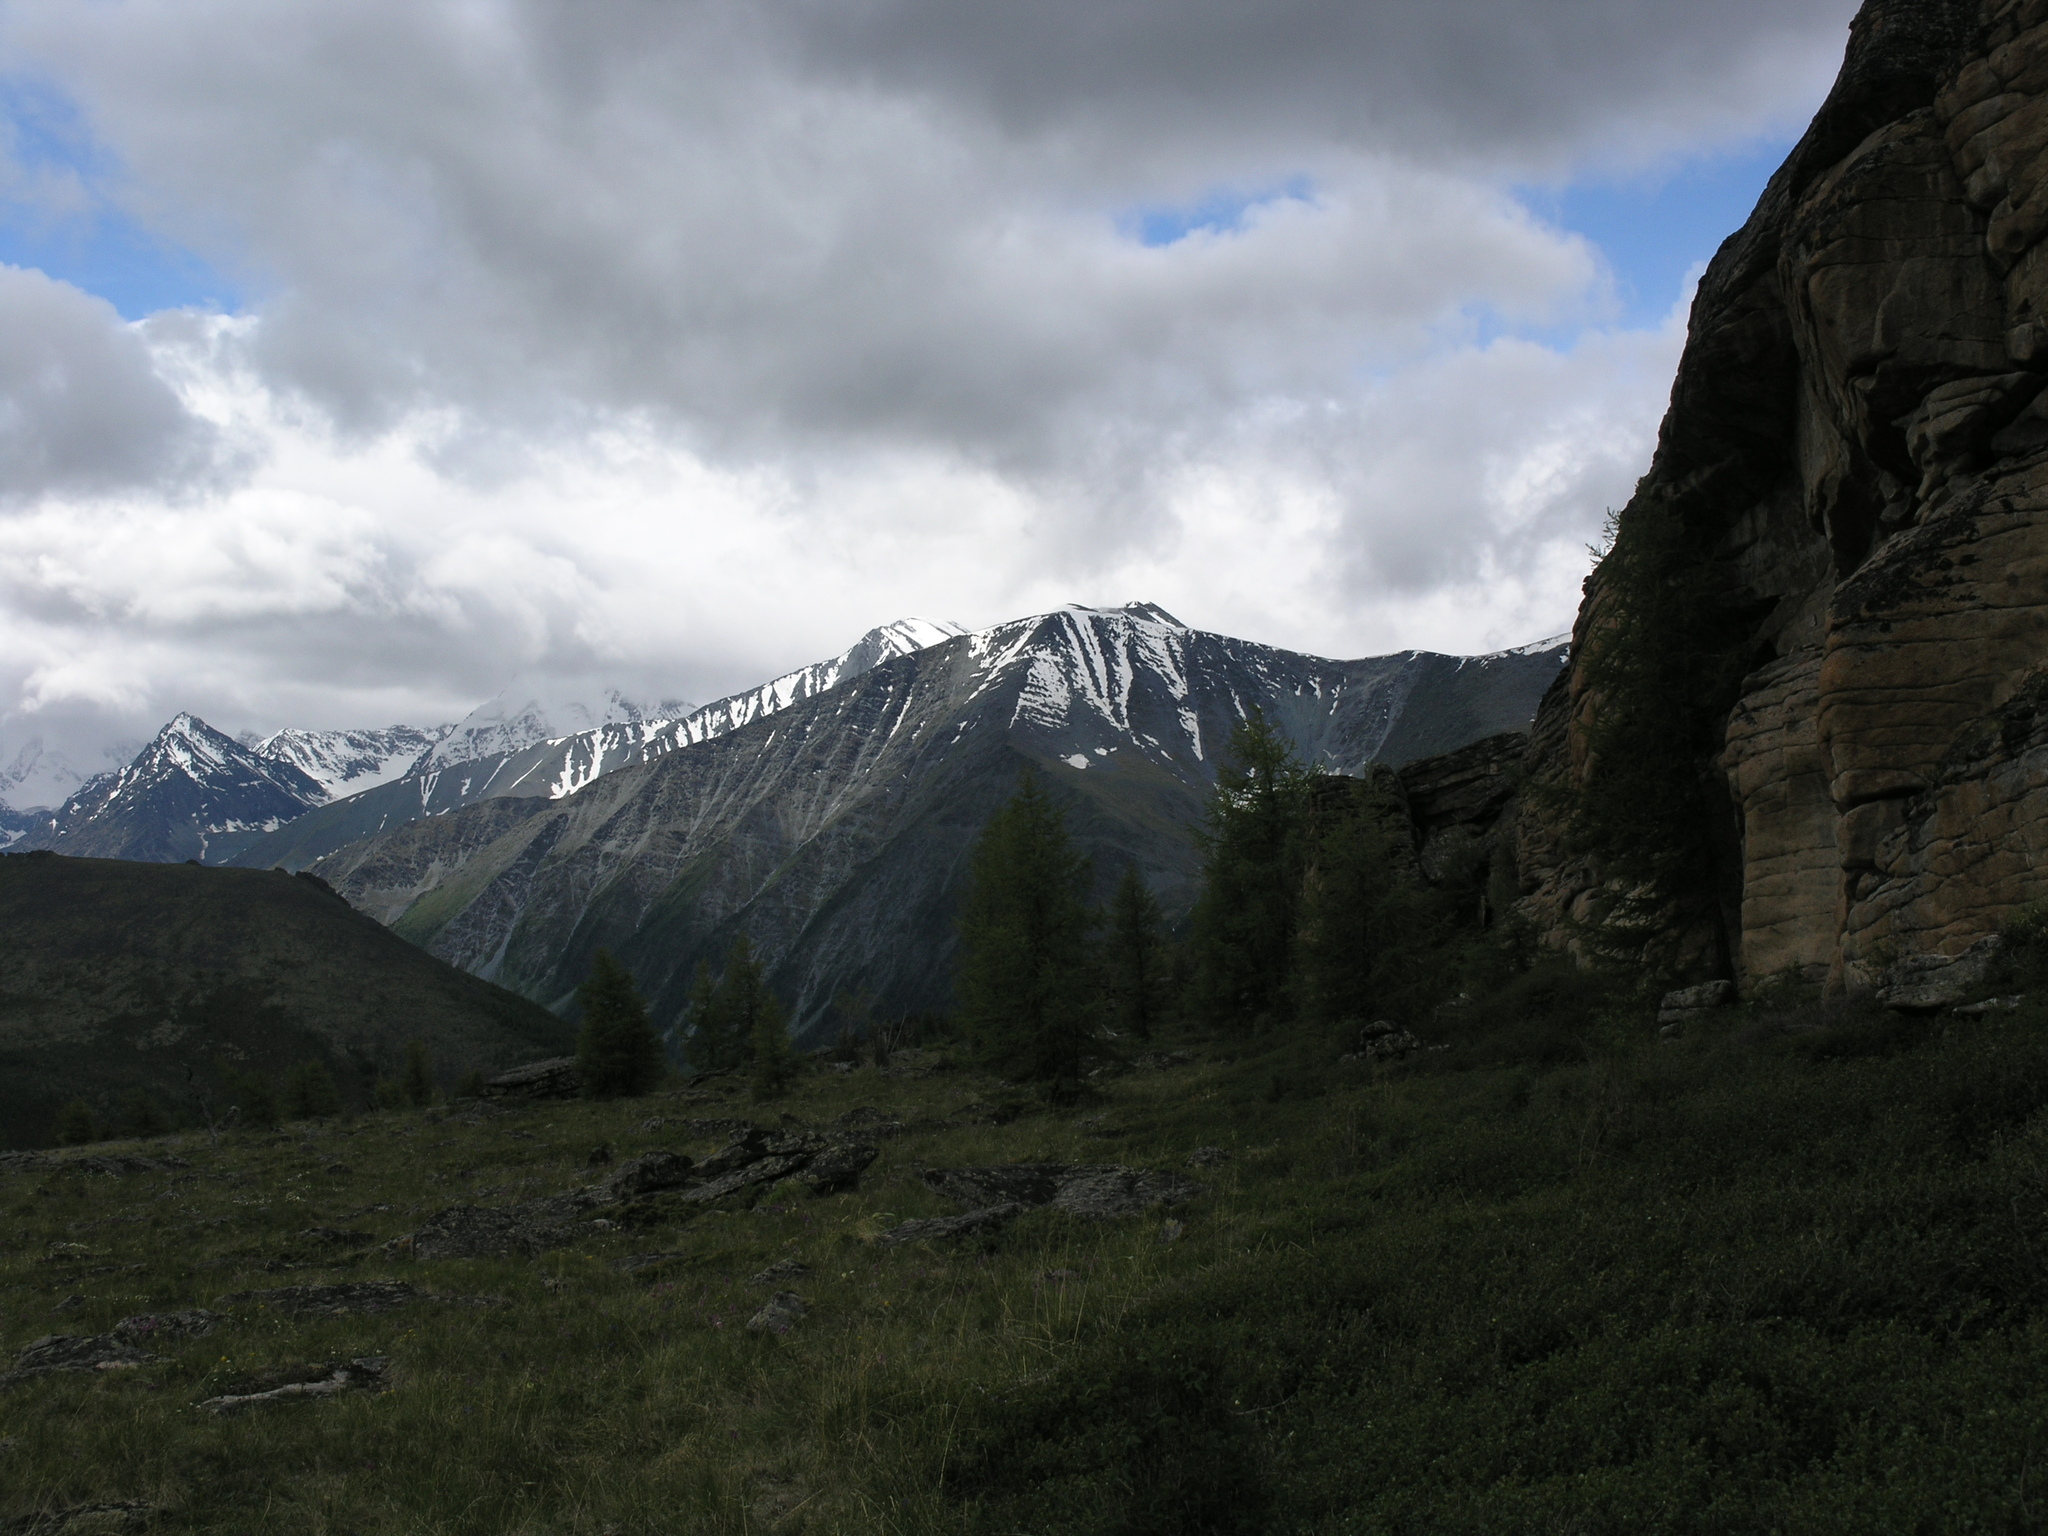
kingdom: Plantae
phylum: Tracheophyta
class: Pinopsida
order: Pinales
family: Pinaceae
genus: Larix
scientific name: Larix sibirica
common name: Siberian larch
